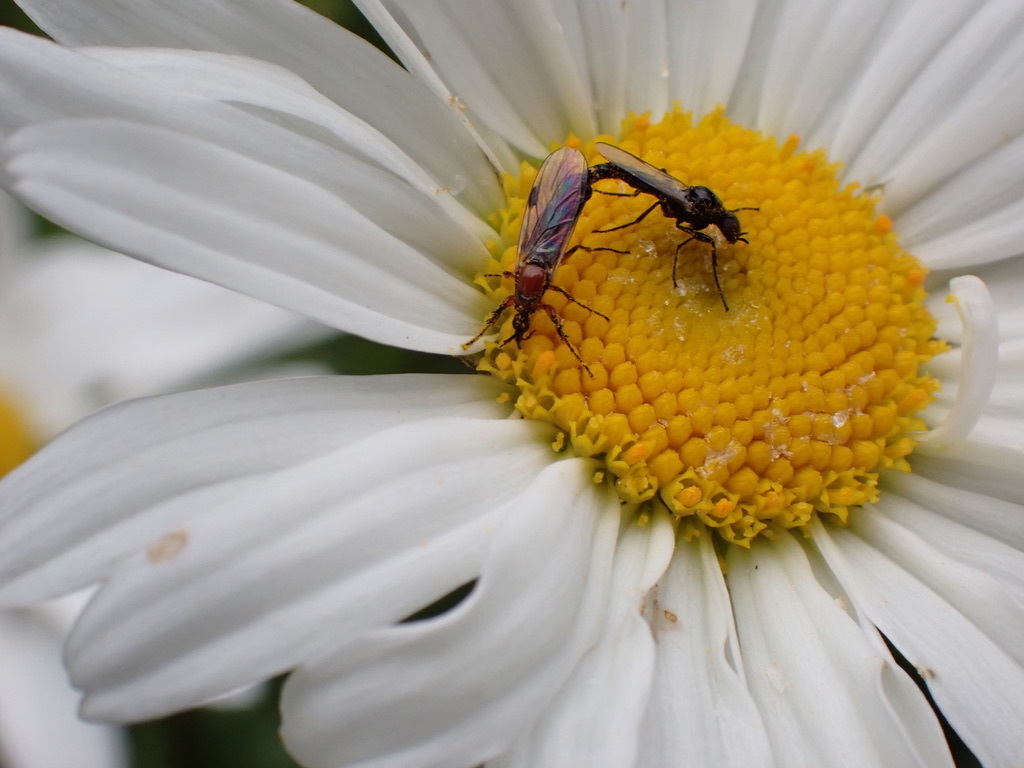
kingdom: Animalia
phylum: Arthropoda
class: Insecta
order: Diptera
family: Bibionidae
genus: Dilophus
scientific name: Dilophus strigilatus
